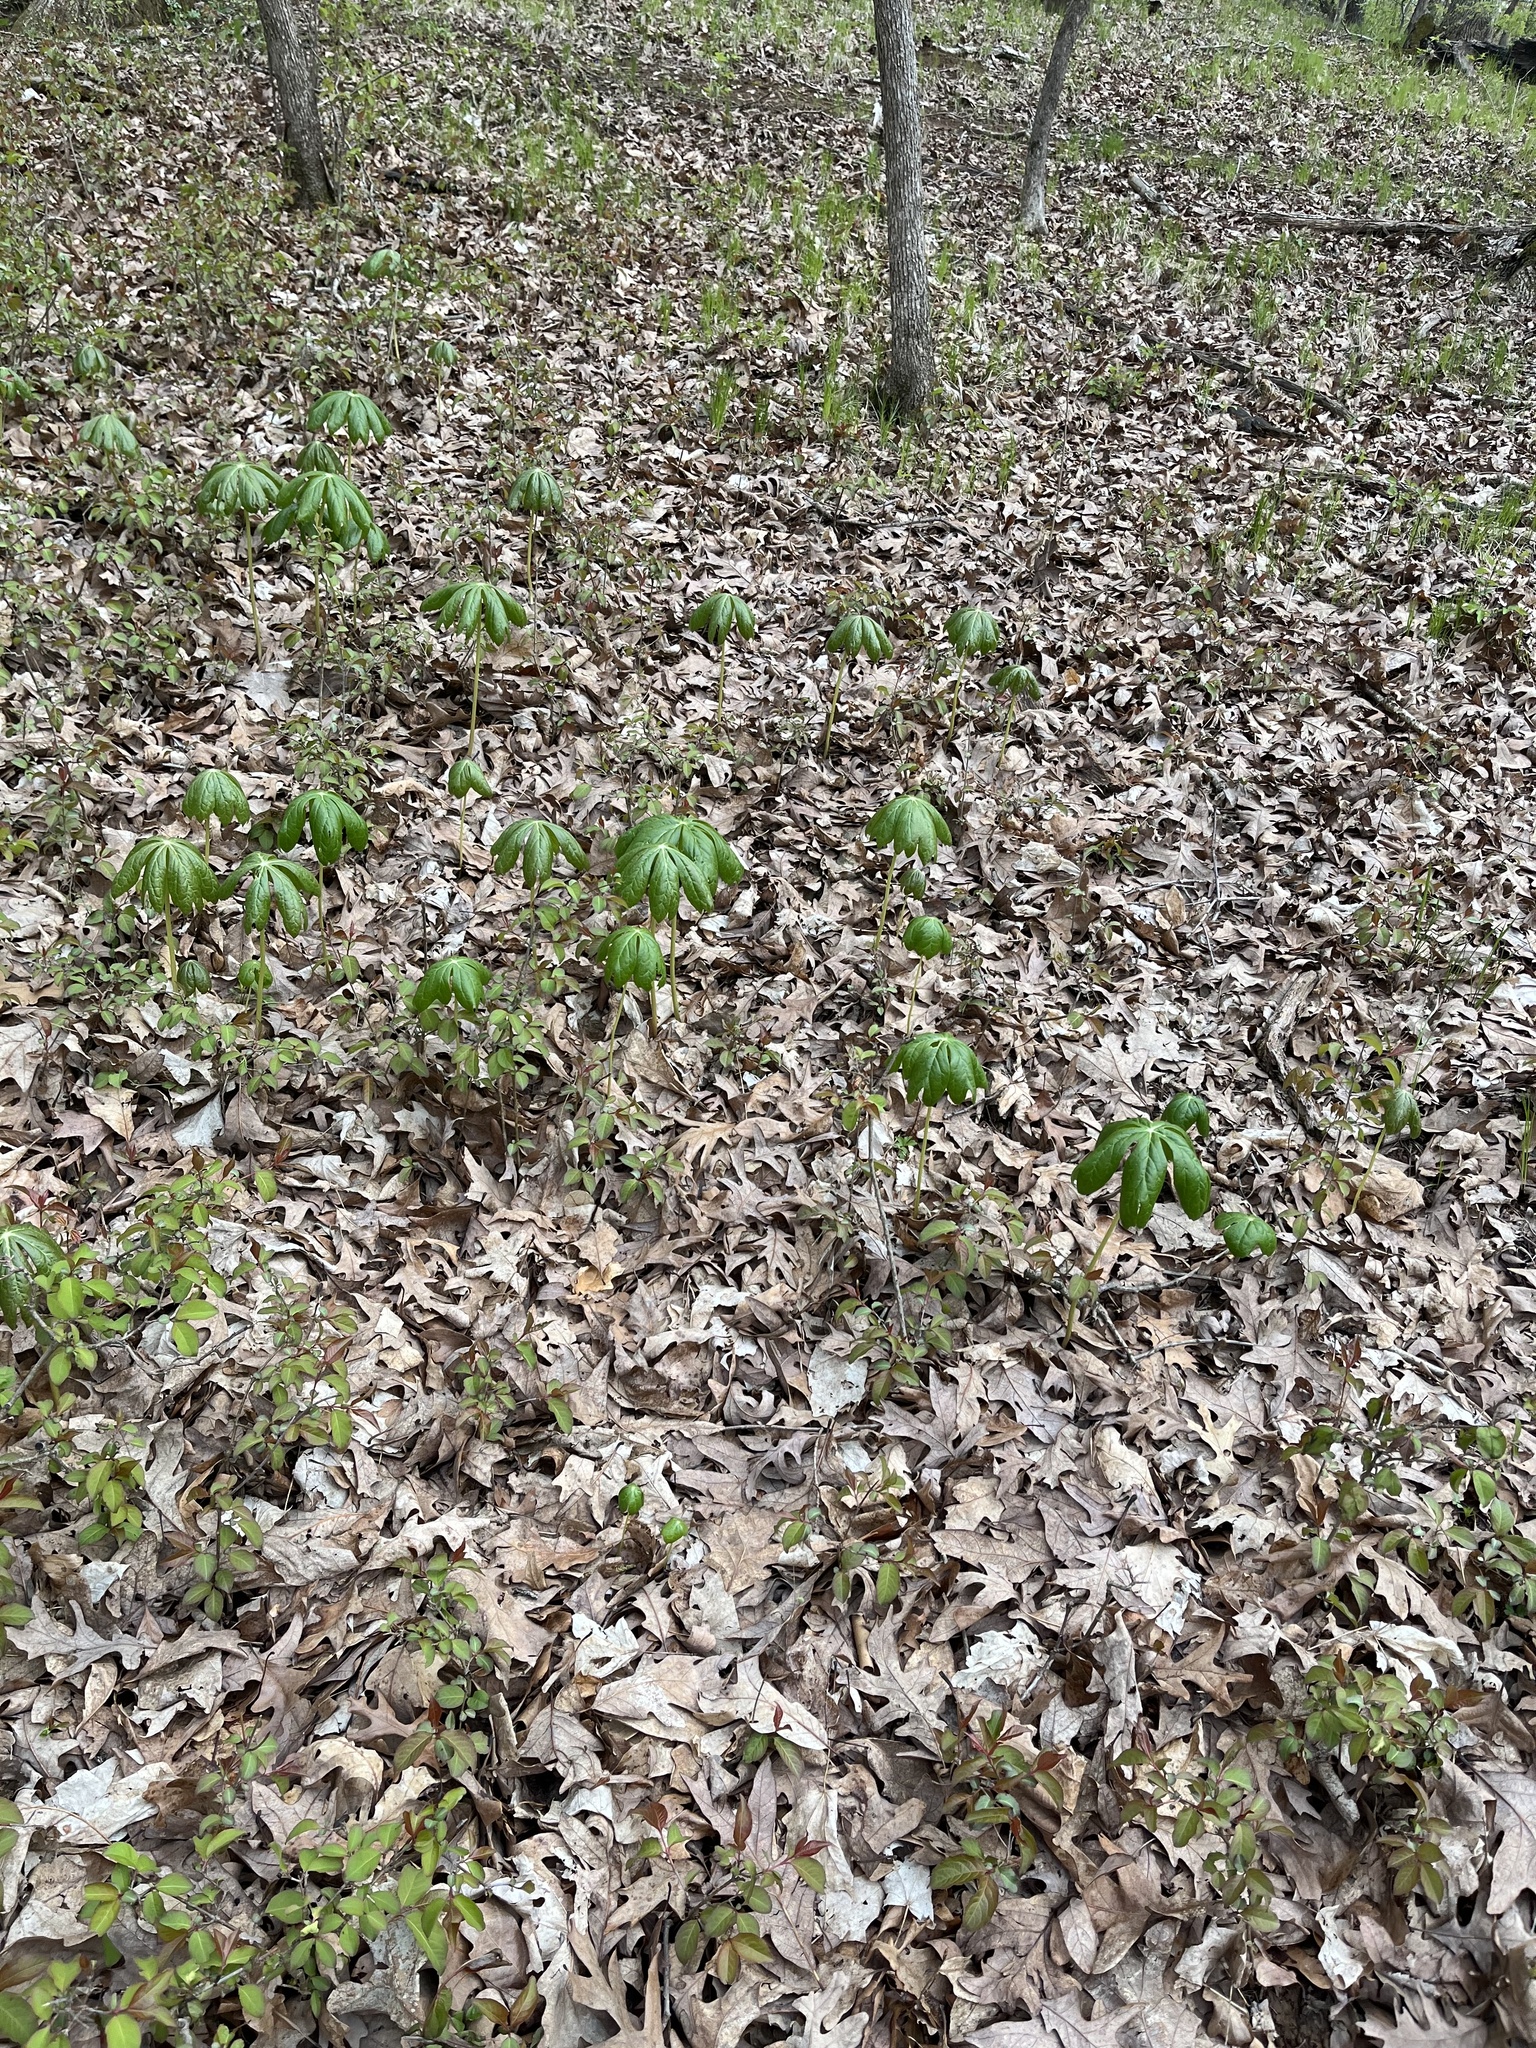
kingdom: Plantae
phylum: Tracheophyta
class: Magnoliopsida
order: Ranunculales
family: Berberidaceae
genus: Podophyllum
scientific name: Podophyllum peltatum
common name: Wild mandrake
